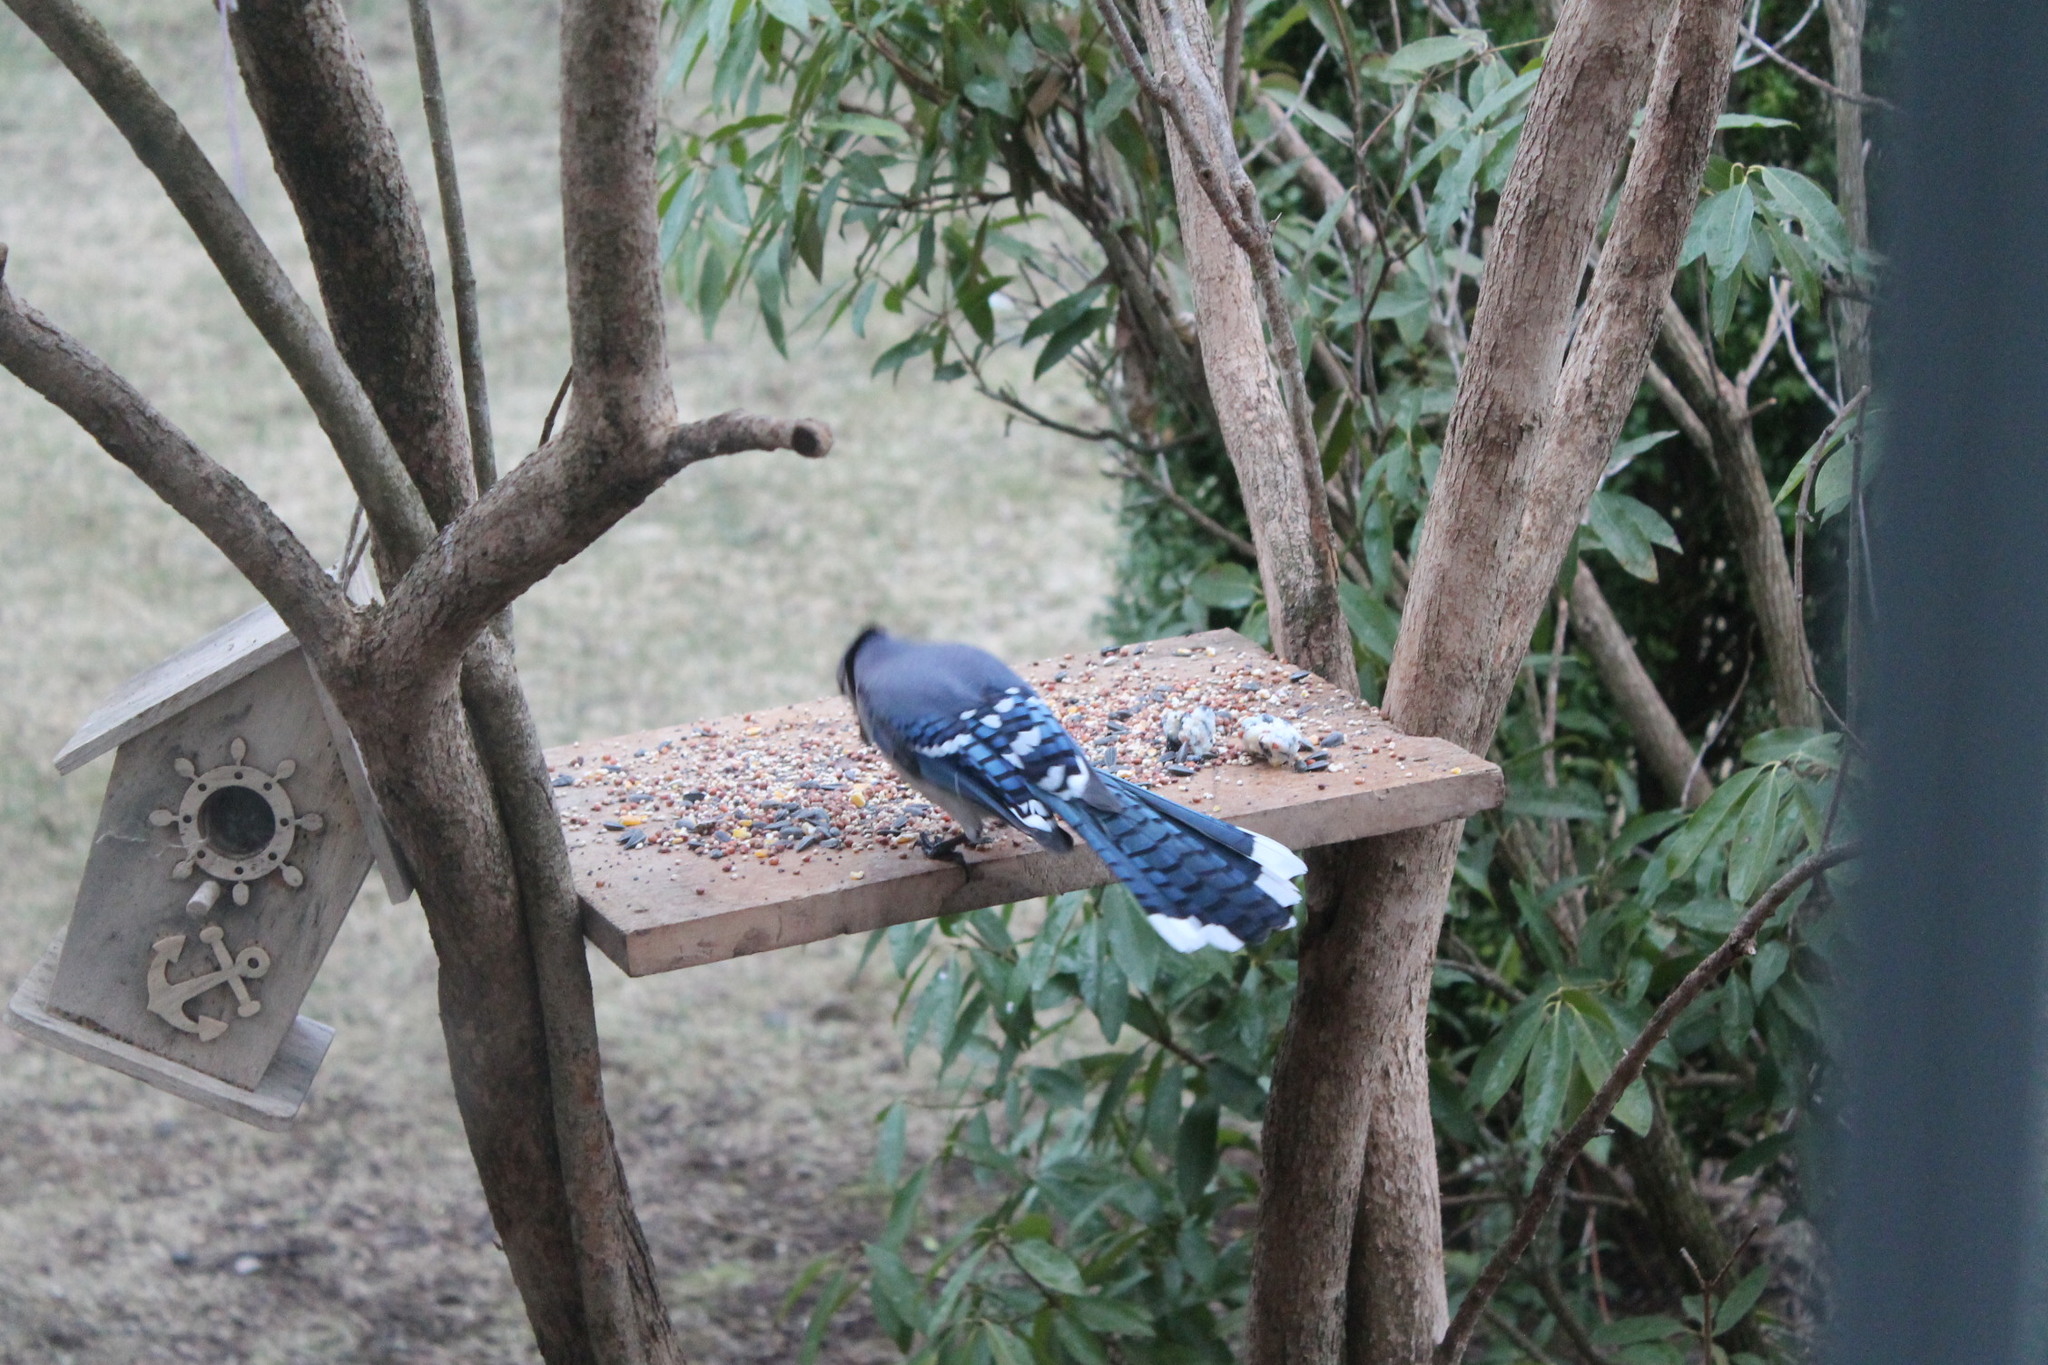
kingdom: Animalia
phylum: Chordata
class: Aves
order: Passeriformes
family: Corvidae
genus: Cyanocitta
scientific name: Cyanocitta cristata
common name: Blue jay
